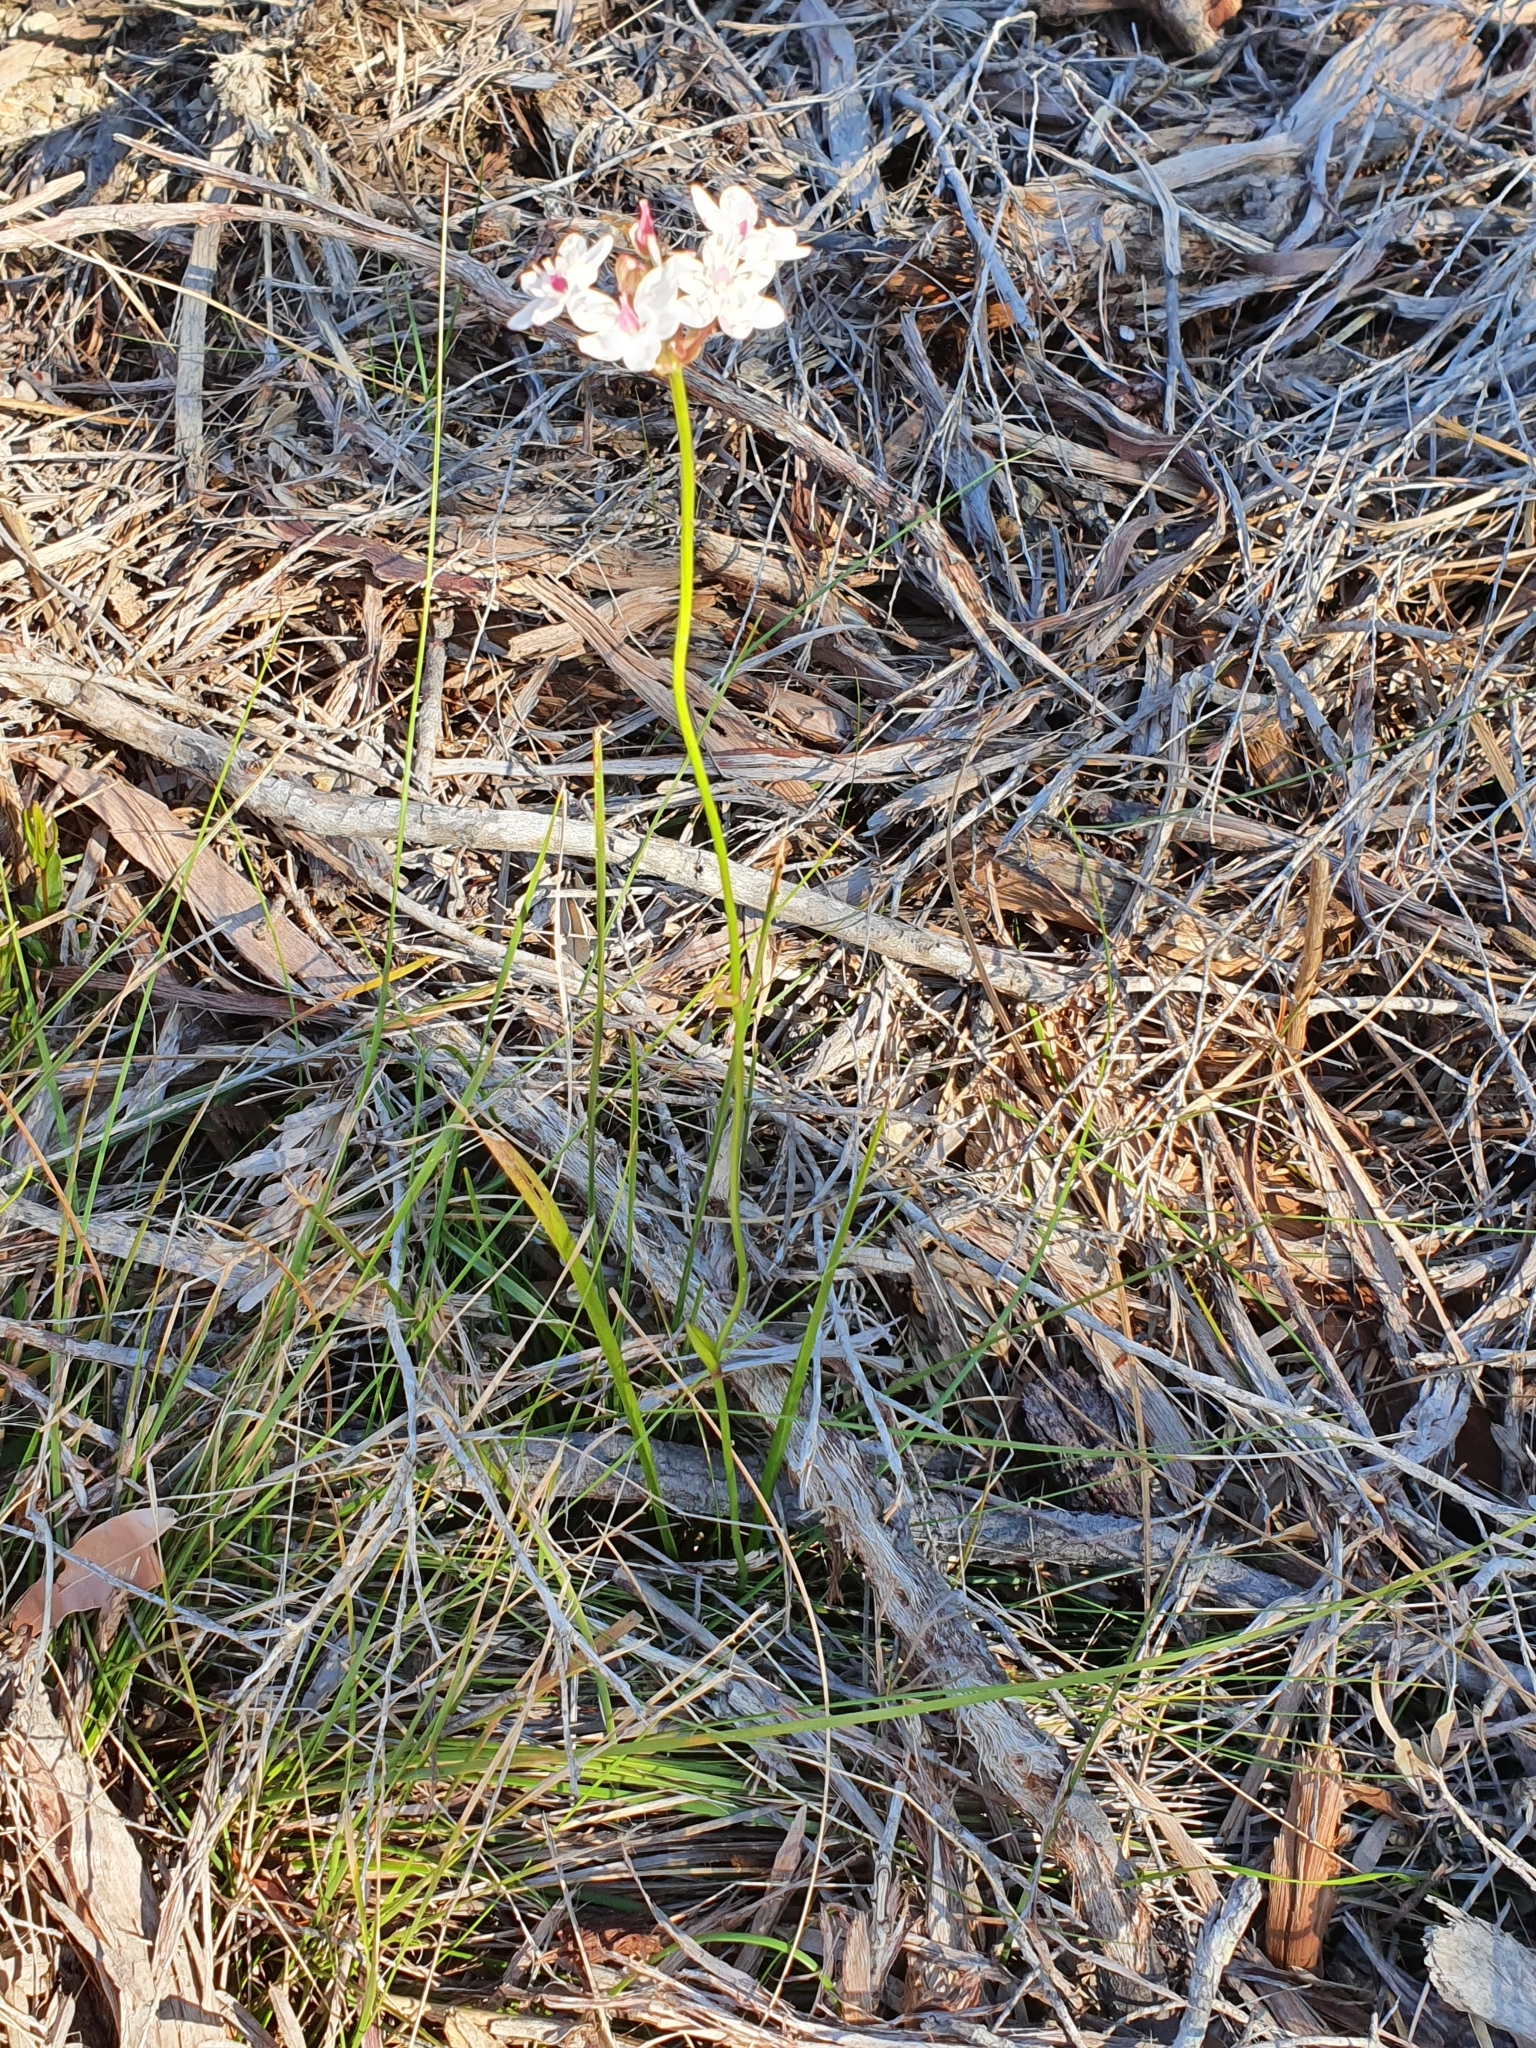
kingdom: Plantae
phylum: Tracheophyta
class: Liliopsida
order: Liliales
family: Colchicaceae
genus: Burchardia
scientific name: Burchardia umbellata
